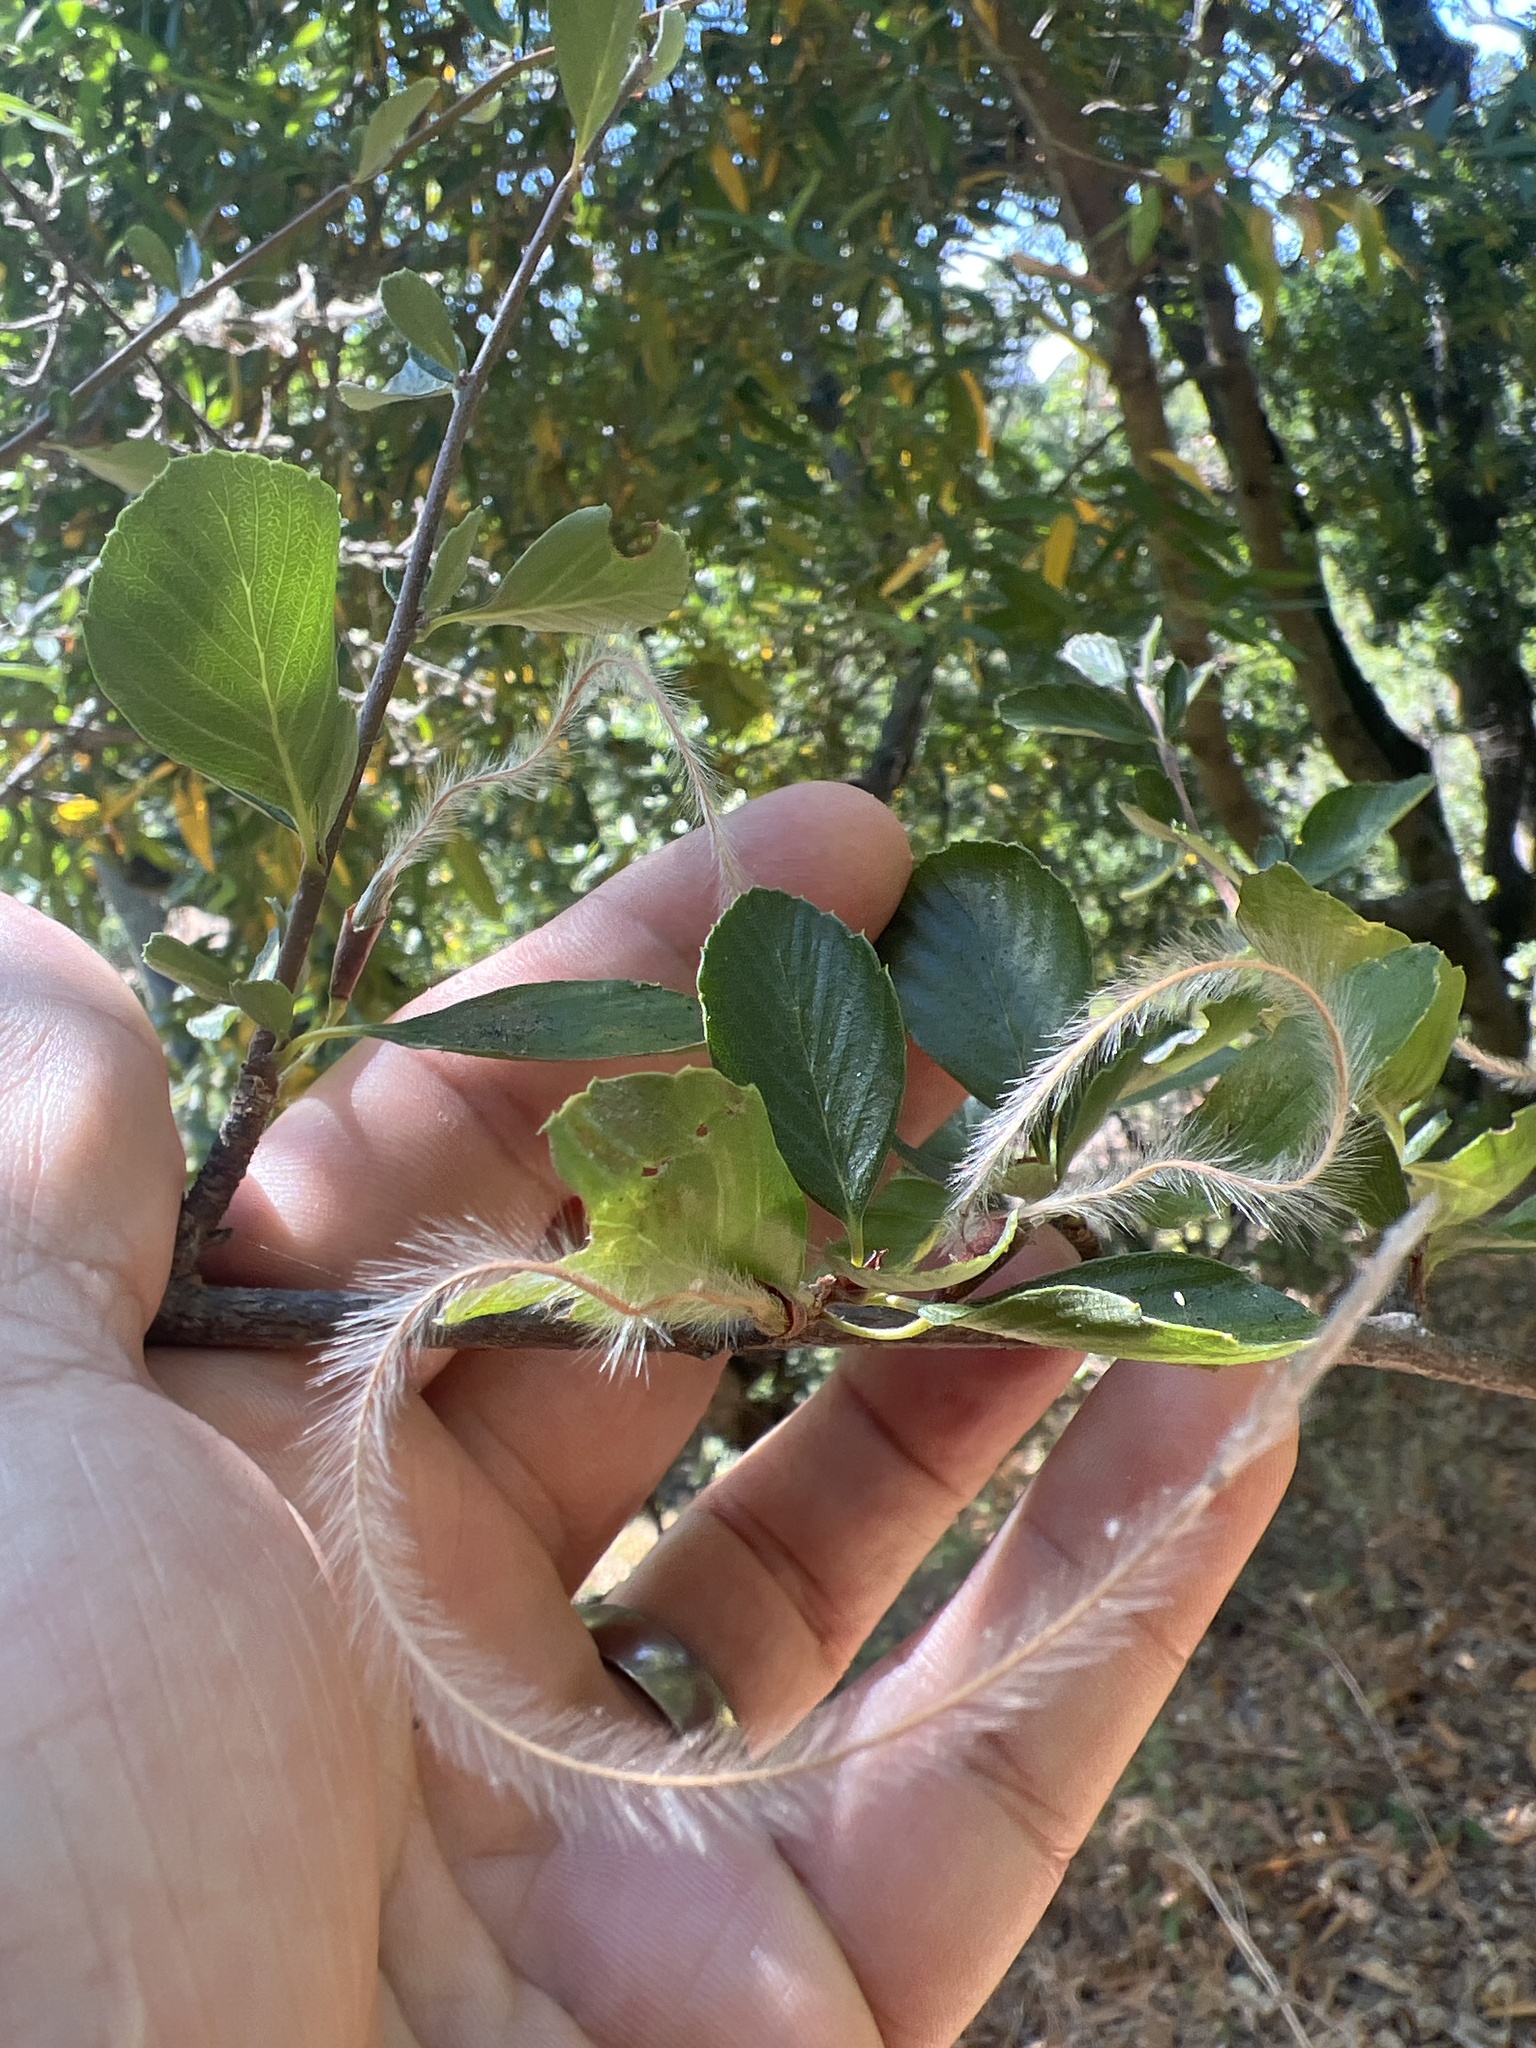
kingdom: Plantae
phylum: Tracheophyta
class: Magnoliopsida
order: Rosales
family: Rosaceae
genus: Cercocarpus
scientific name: Cercocarpus betuloides
